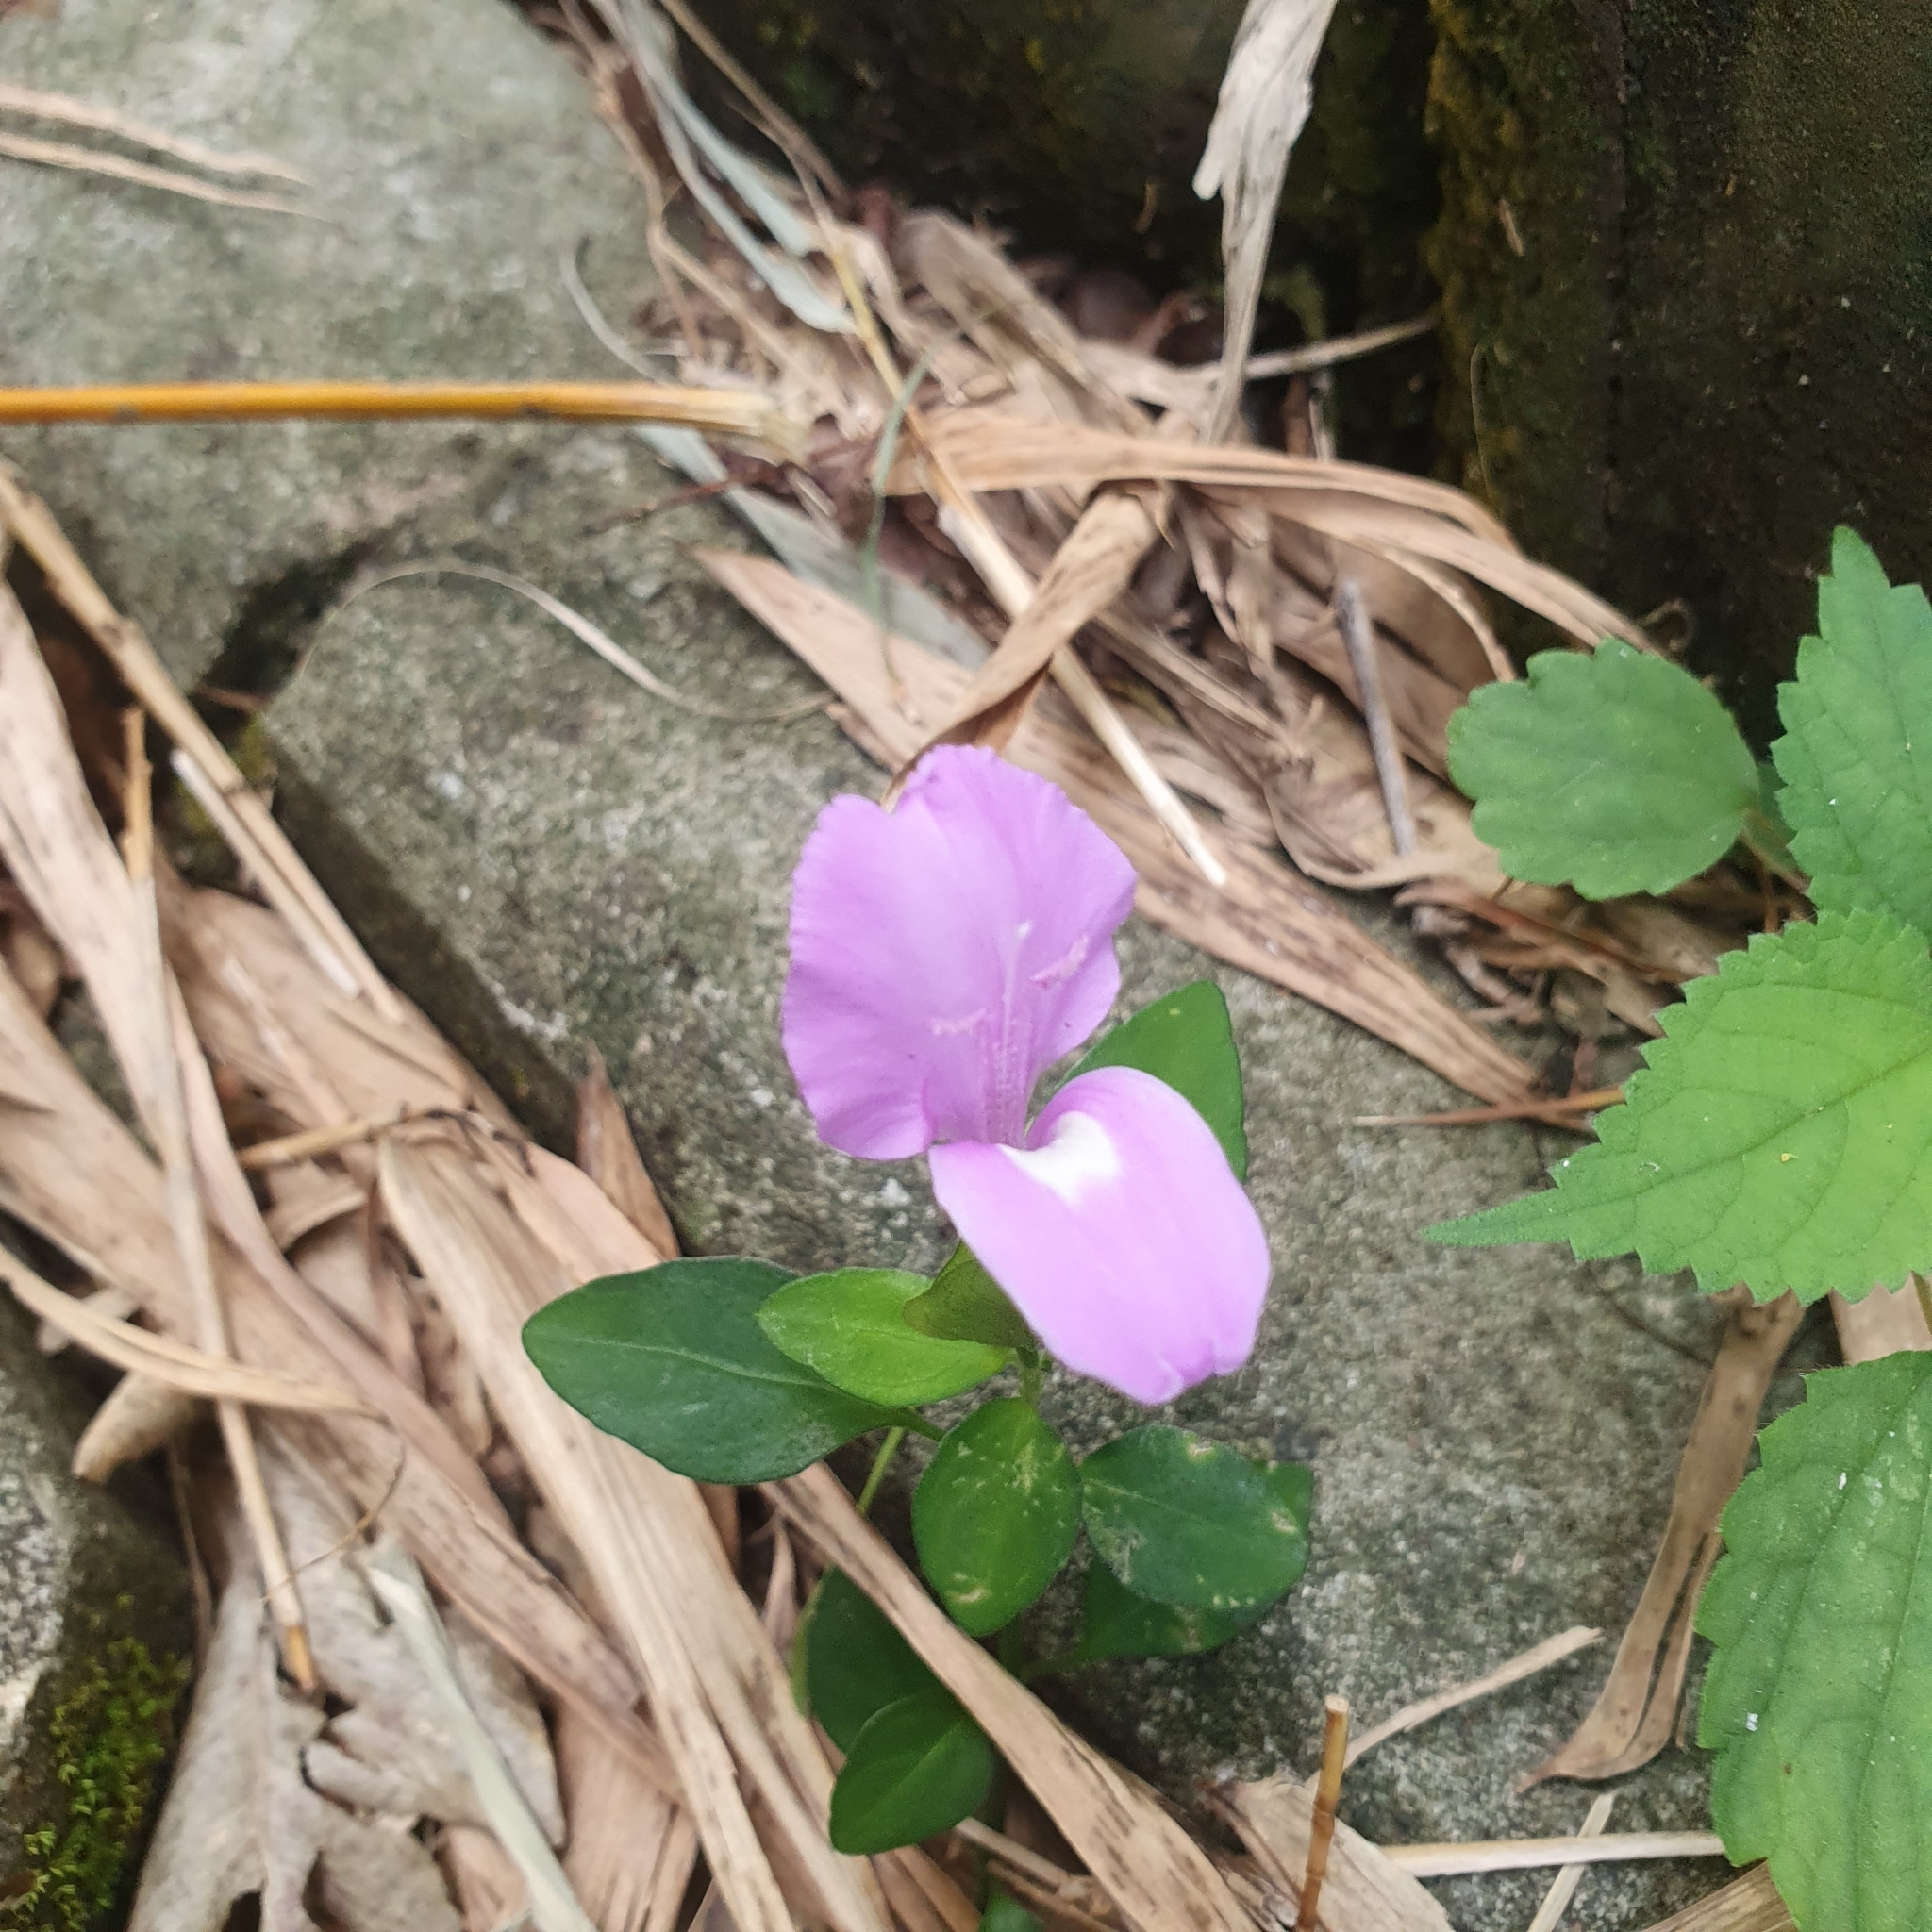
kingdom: Plantae
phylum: Tracheophyta
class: Magnoliopsida
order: Lamiales
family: Acanthaceae
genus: Dicliptera
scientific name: Dicliptera tinctoria
